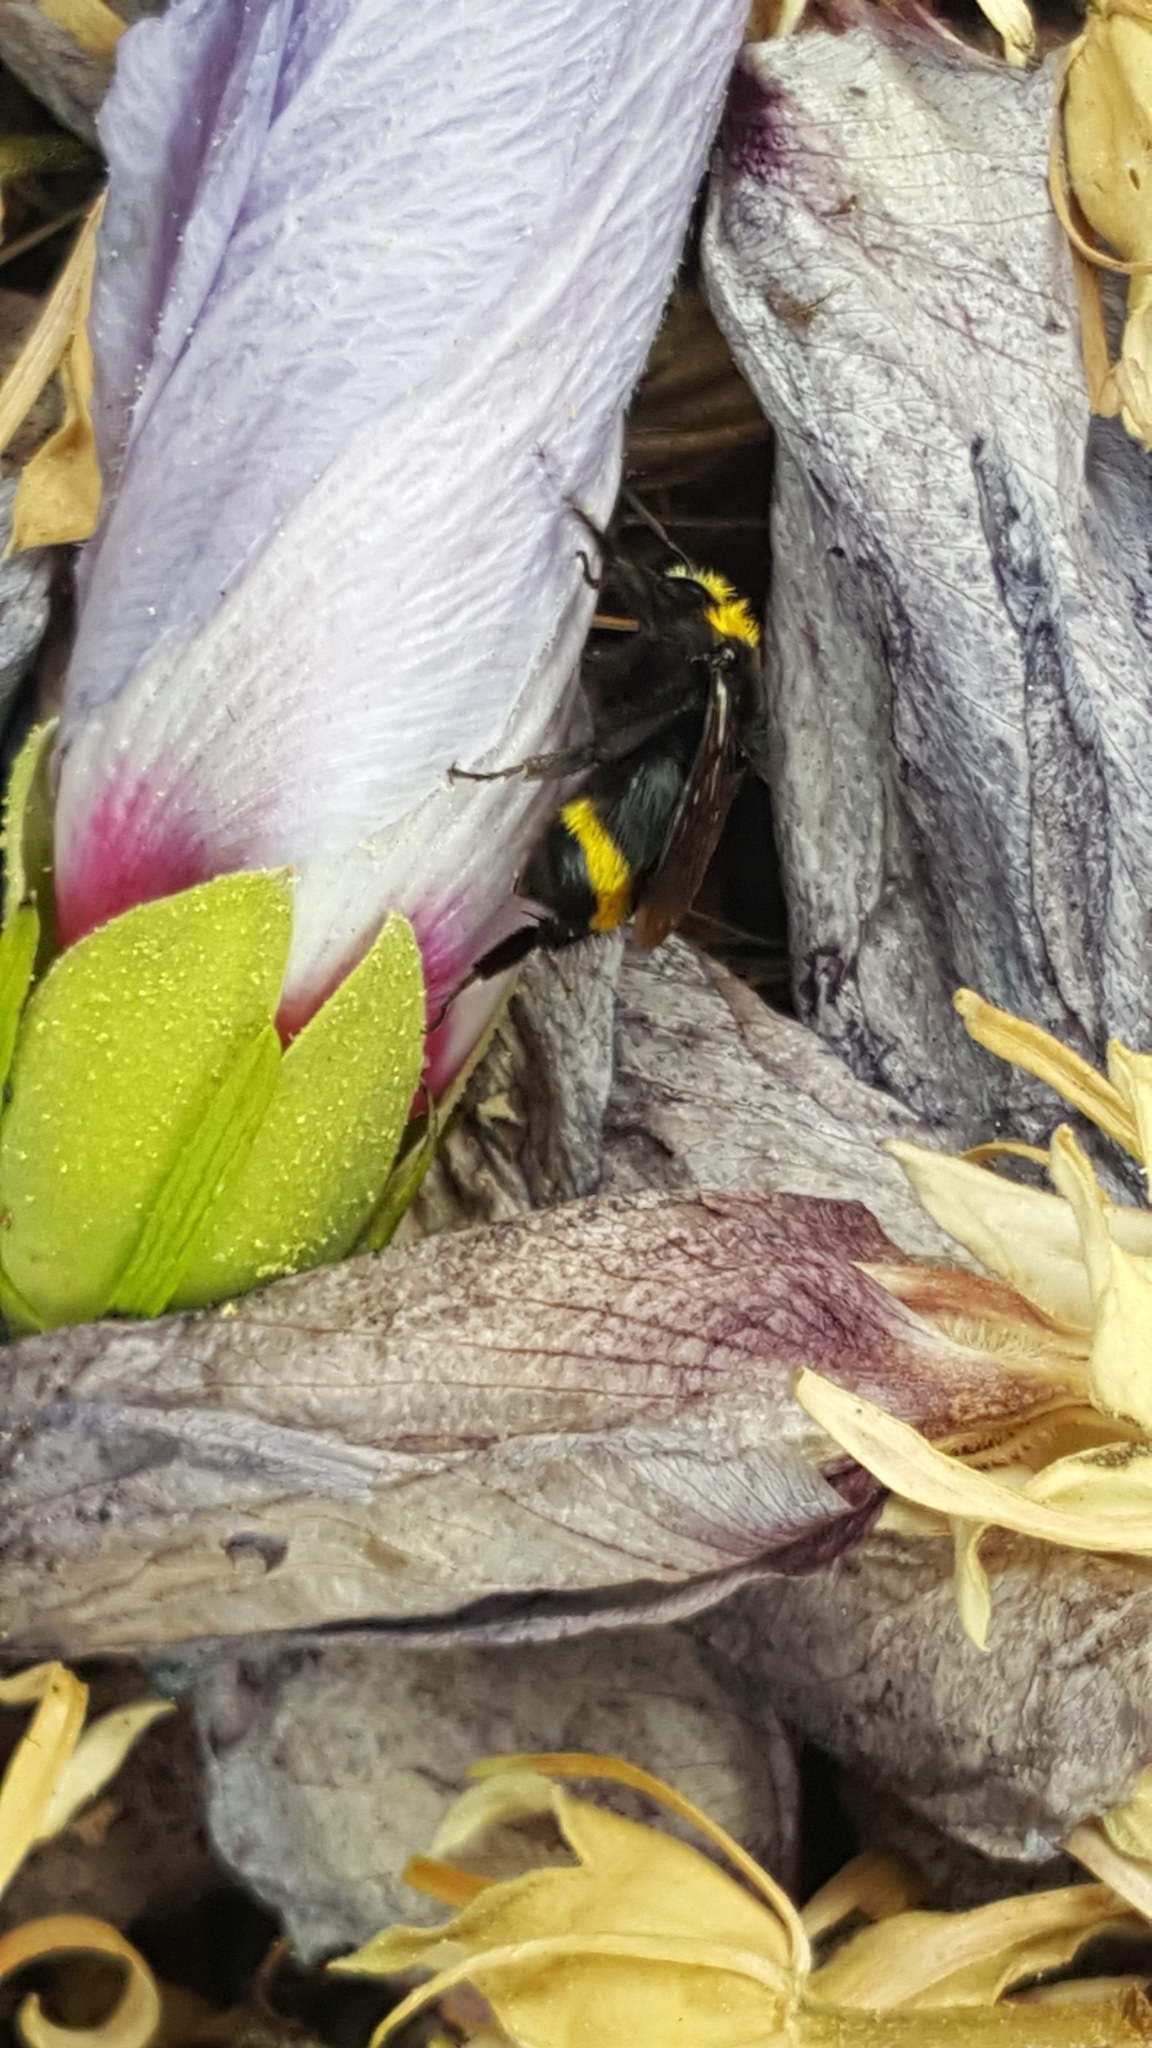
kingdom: Animalia
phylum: Arthropoda
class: Insecta
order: Hymenoptera
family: Apidae
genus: Bombus
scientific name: Bombus vosnesenskii
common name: Vosnesensky bumble bee
